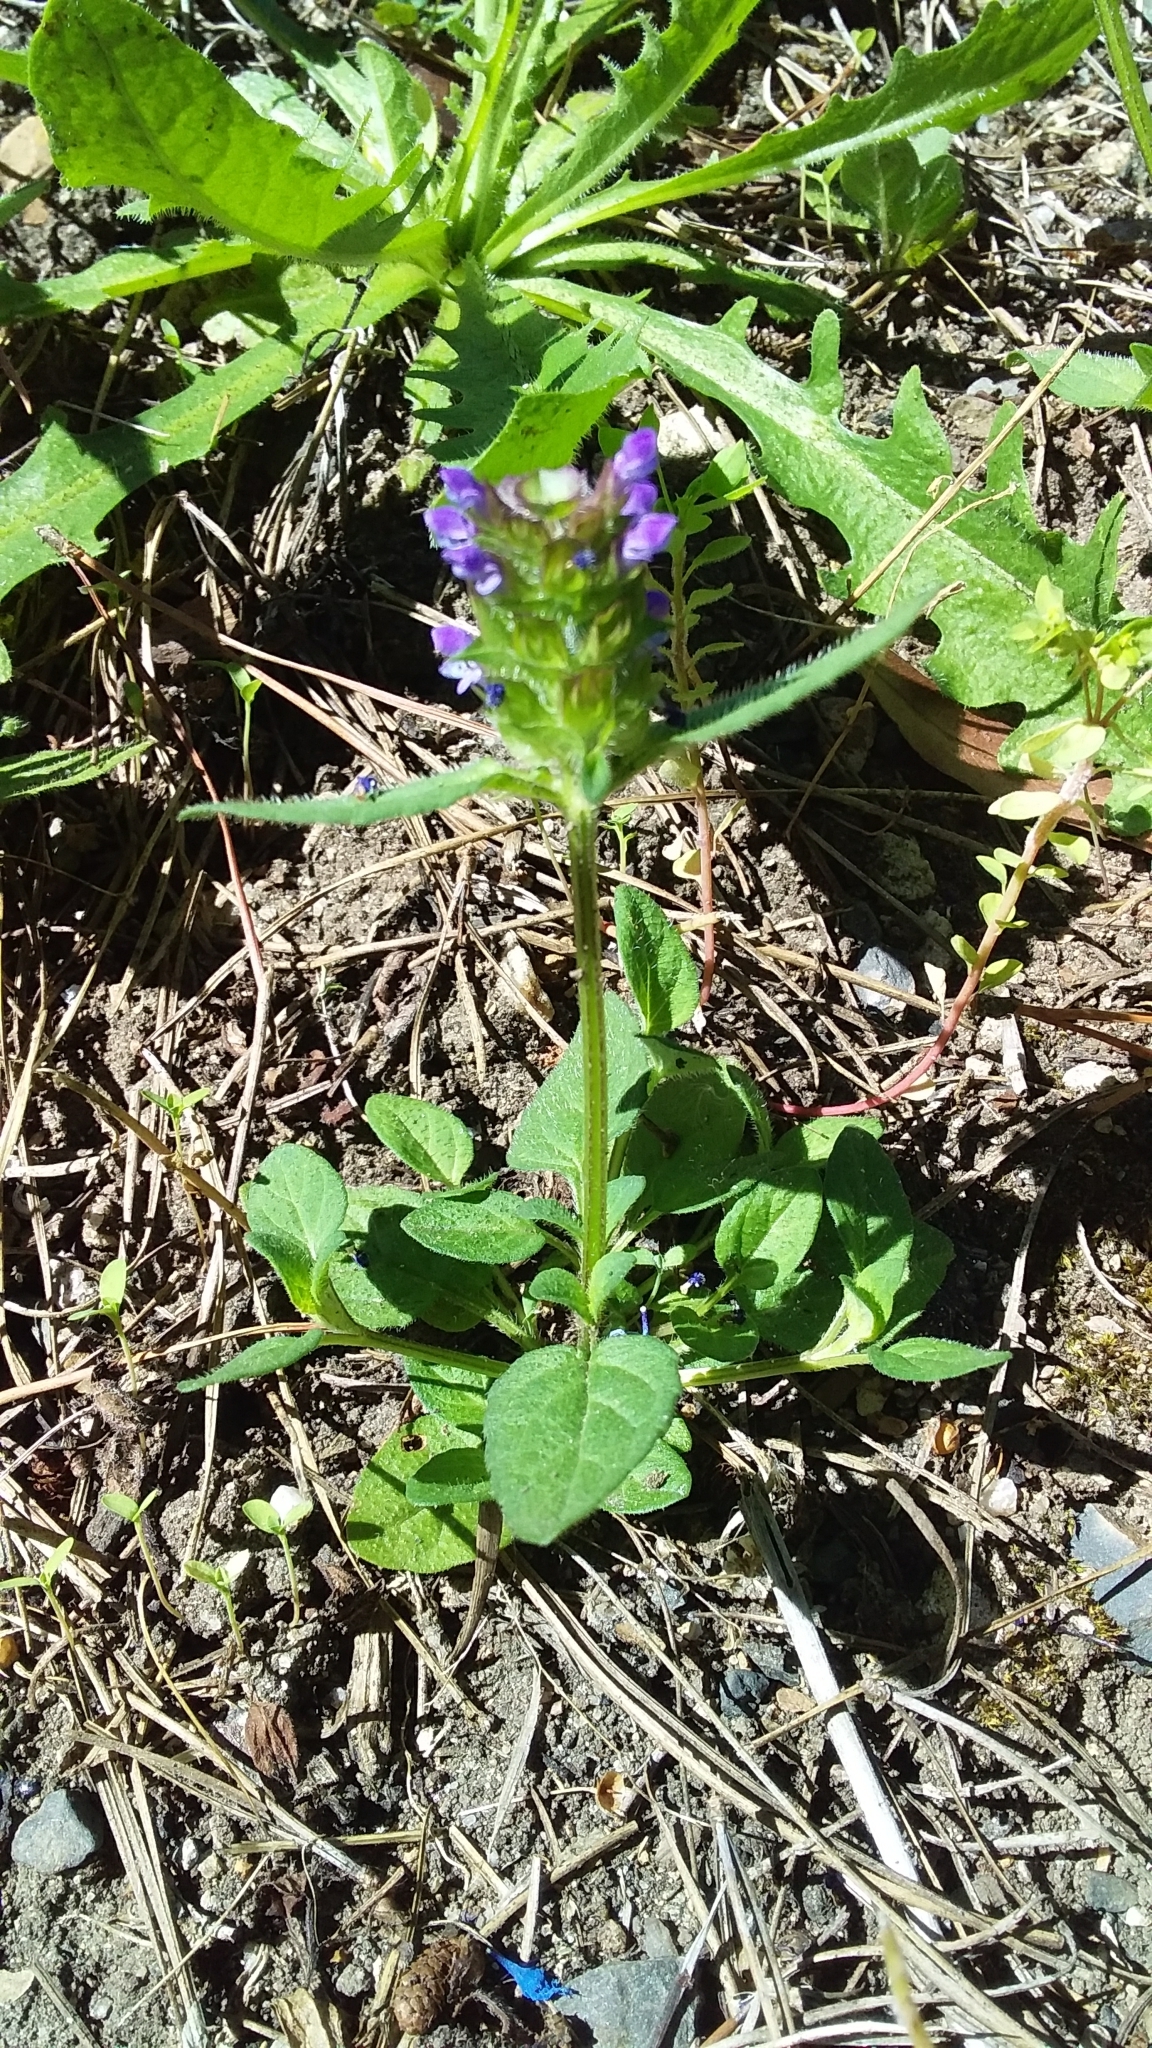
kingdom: Plantae
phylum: Tracheophyta
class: Magnoliopsida
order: Lamiales
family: Lamiaceae
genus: Prunella
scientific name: Prunella vulgaris
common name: Heal-all
